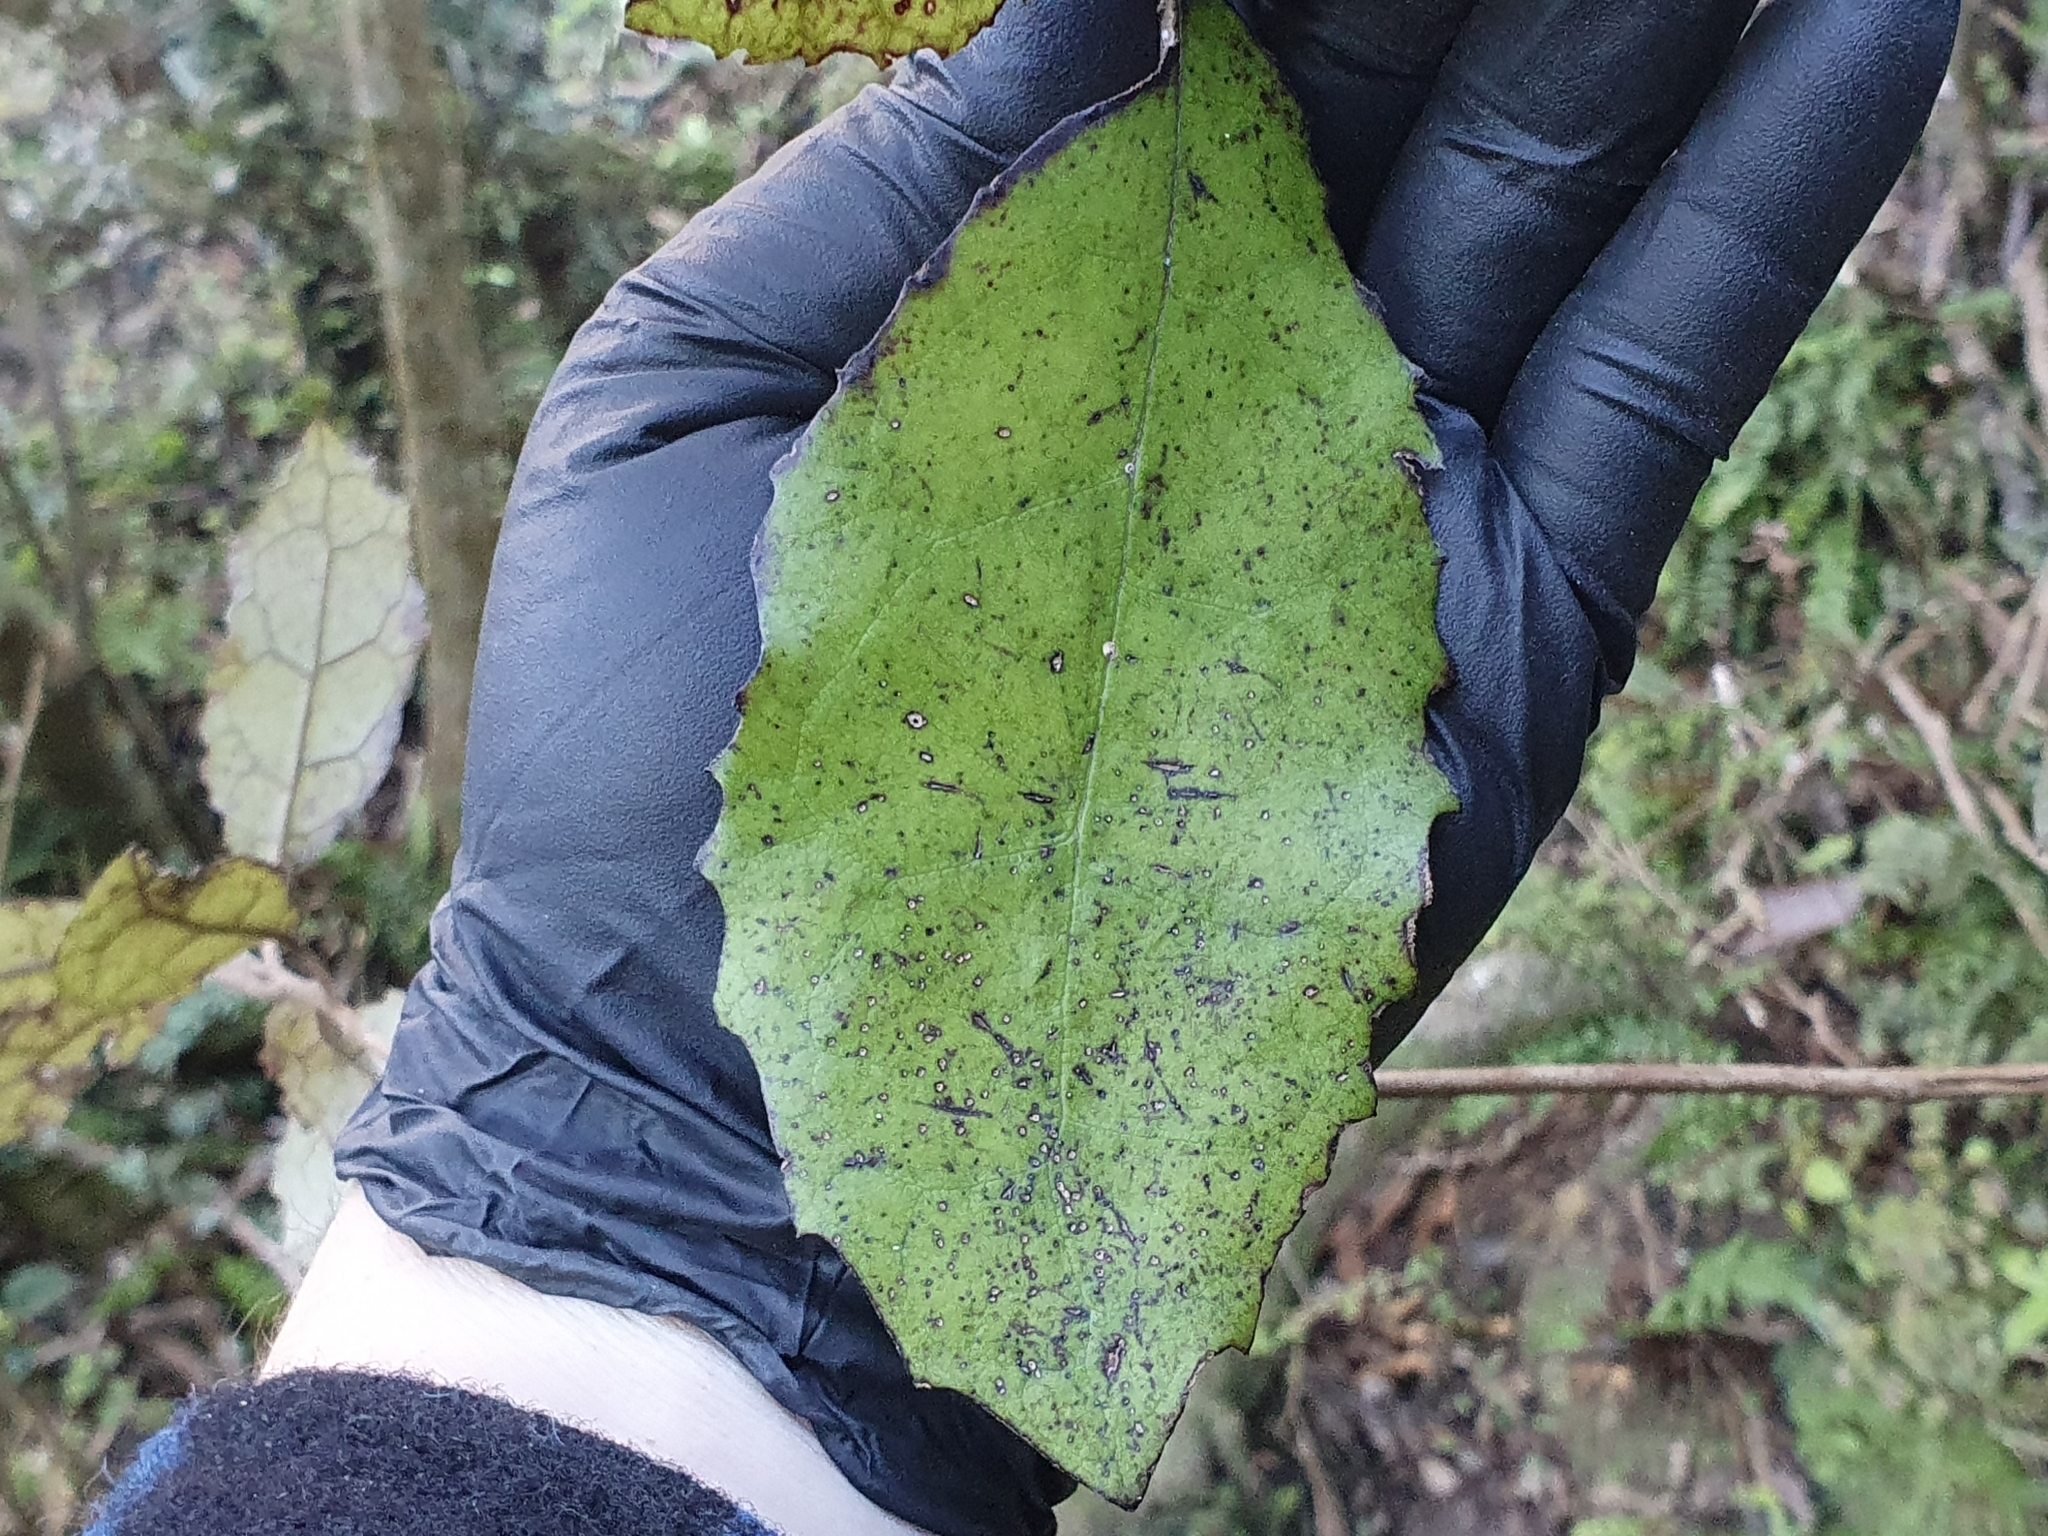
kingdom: Plantae
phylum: Tracheophyta
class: Magnoliopsida
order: Asterales
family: Asteraceae
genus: Olearia
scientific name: Olearia rani
